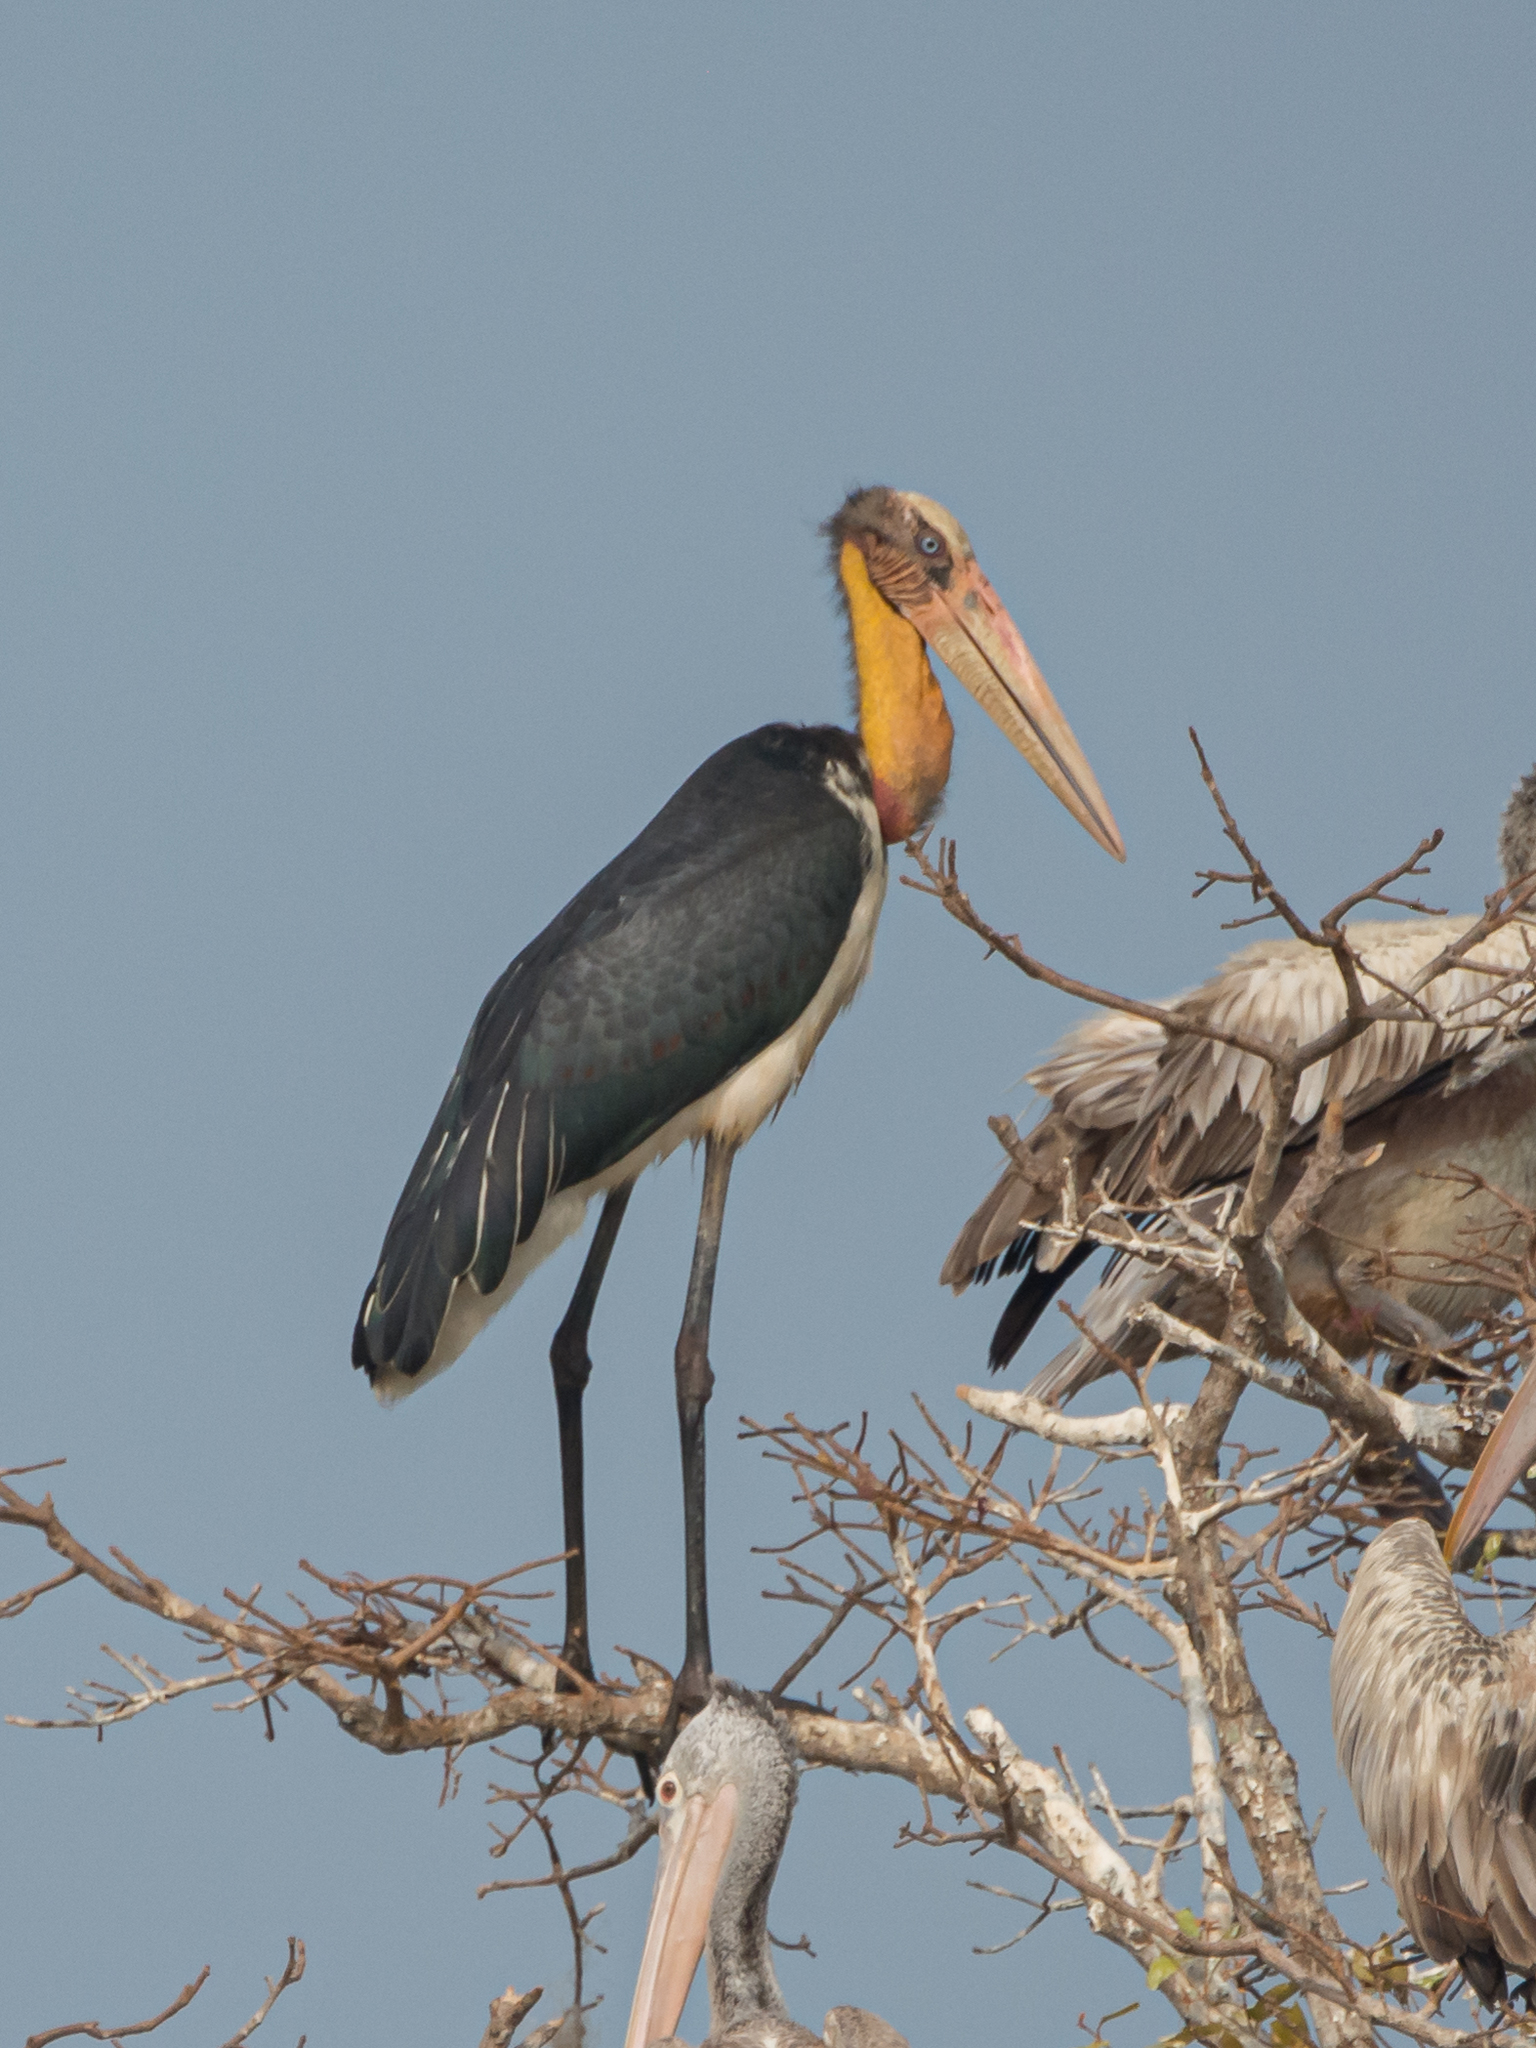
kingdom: Animalia
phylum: Chordata
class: Aves
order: Ciconiiformes
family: Ciconiidae
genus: Leptoptilos
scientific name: Leptoptilos javanicus
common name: Lesser adjutant
